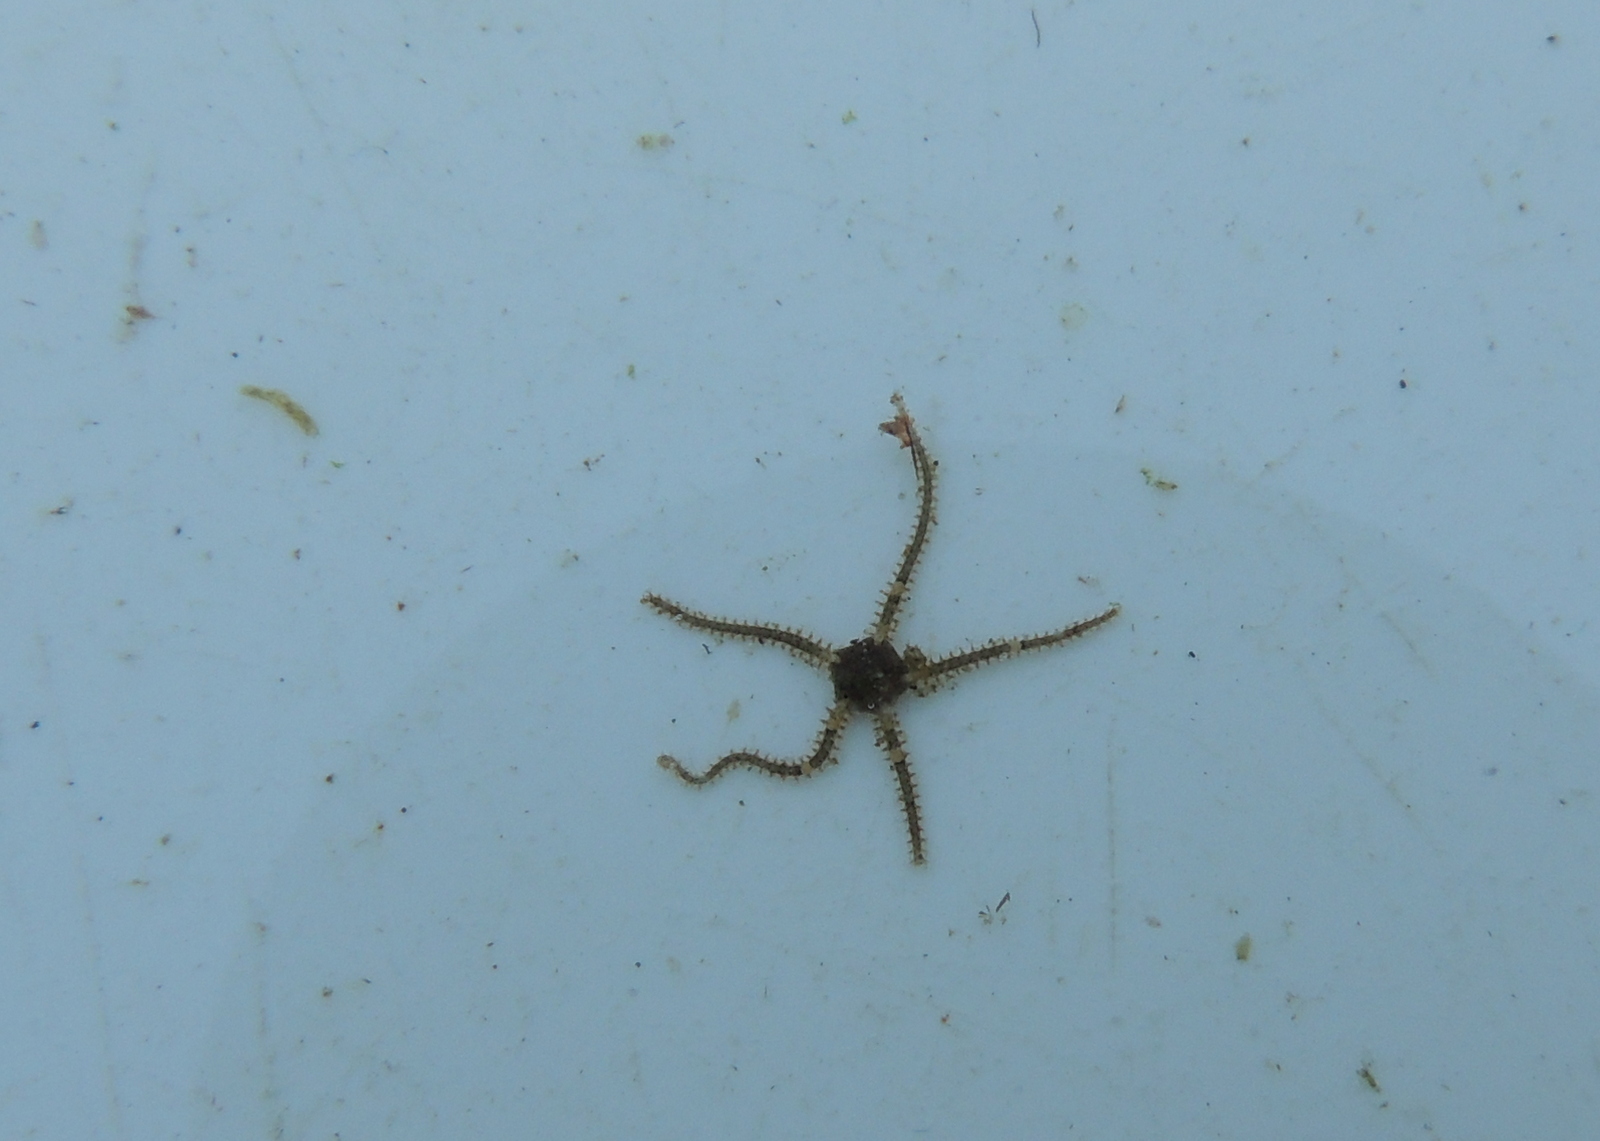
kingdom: Animalia
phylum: Echinodermata
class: Ophiuroidea
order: Amphilepidida
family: Amphiuridae
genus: Amphipholis
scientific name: Amphipholis squamata
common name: Brooding snake star
